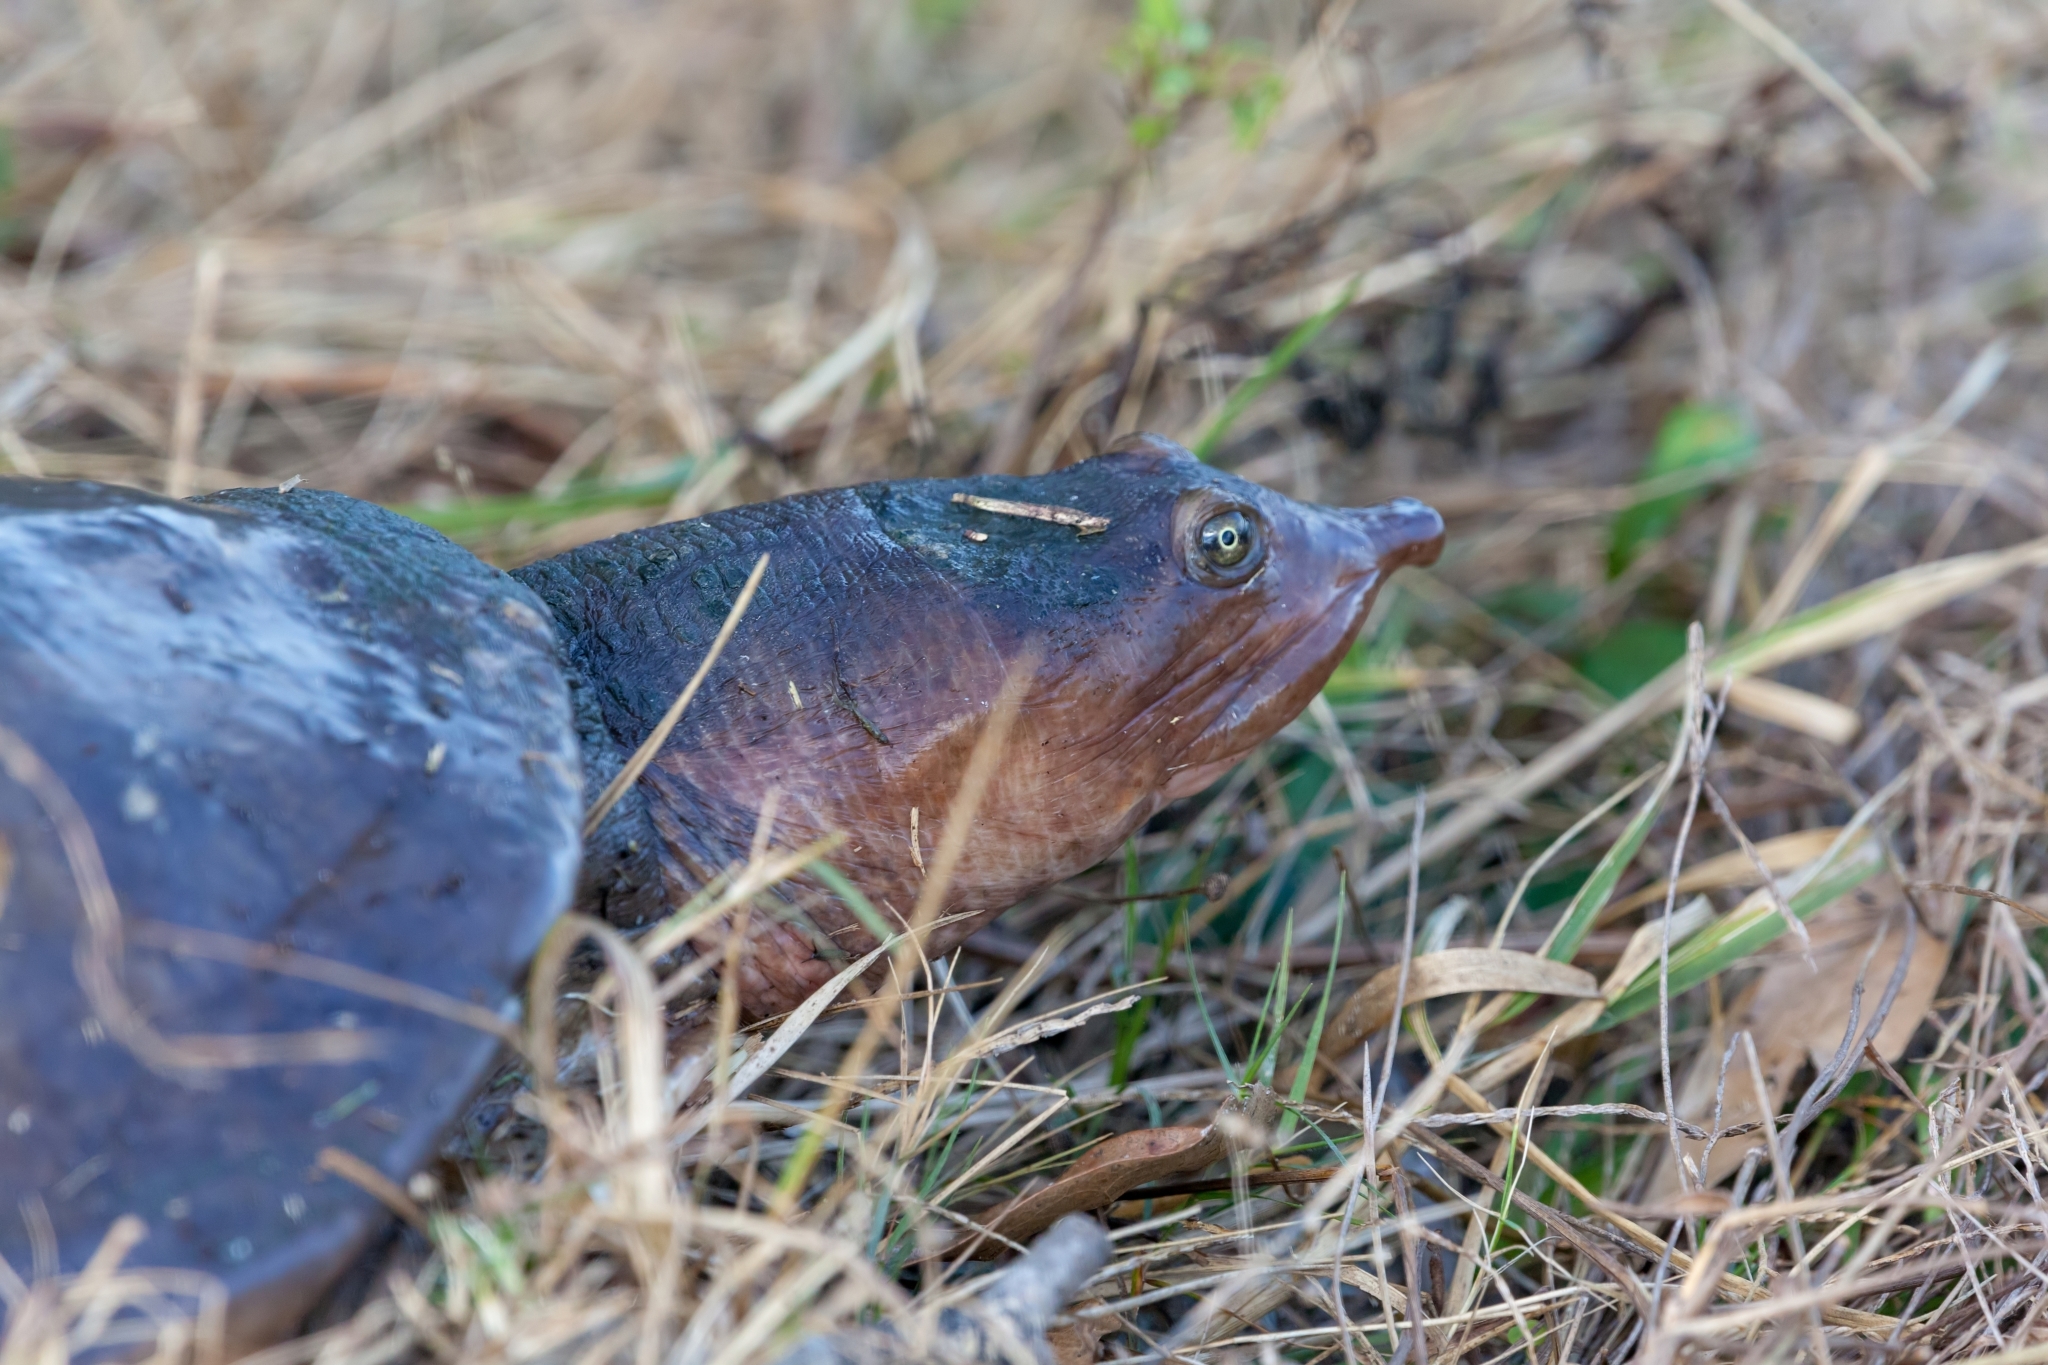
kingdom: Animalia
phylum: Chordata
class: Testudines
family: Trionychidae
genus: Apalone
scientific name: Apalone ferox
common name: Florida softshell turtle
